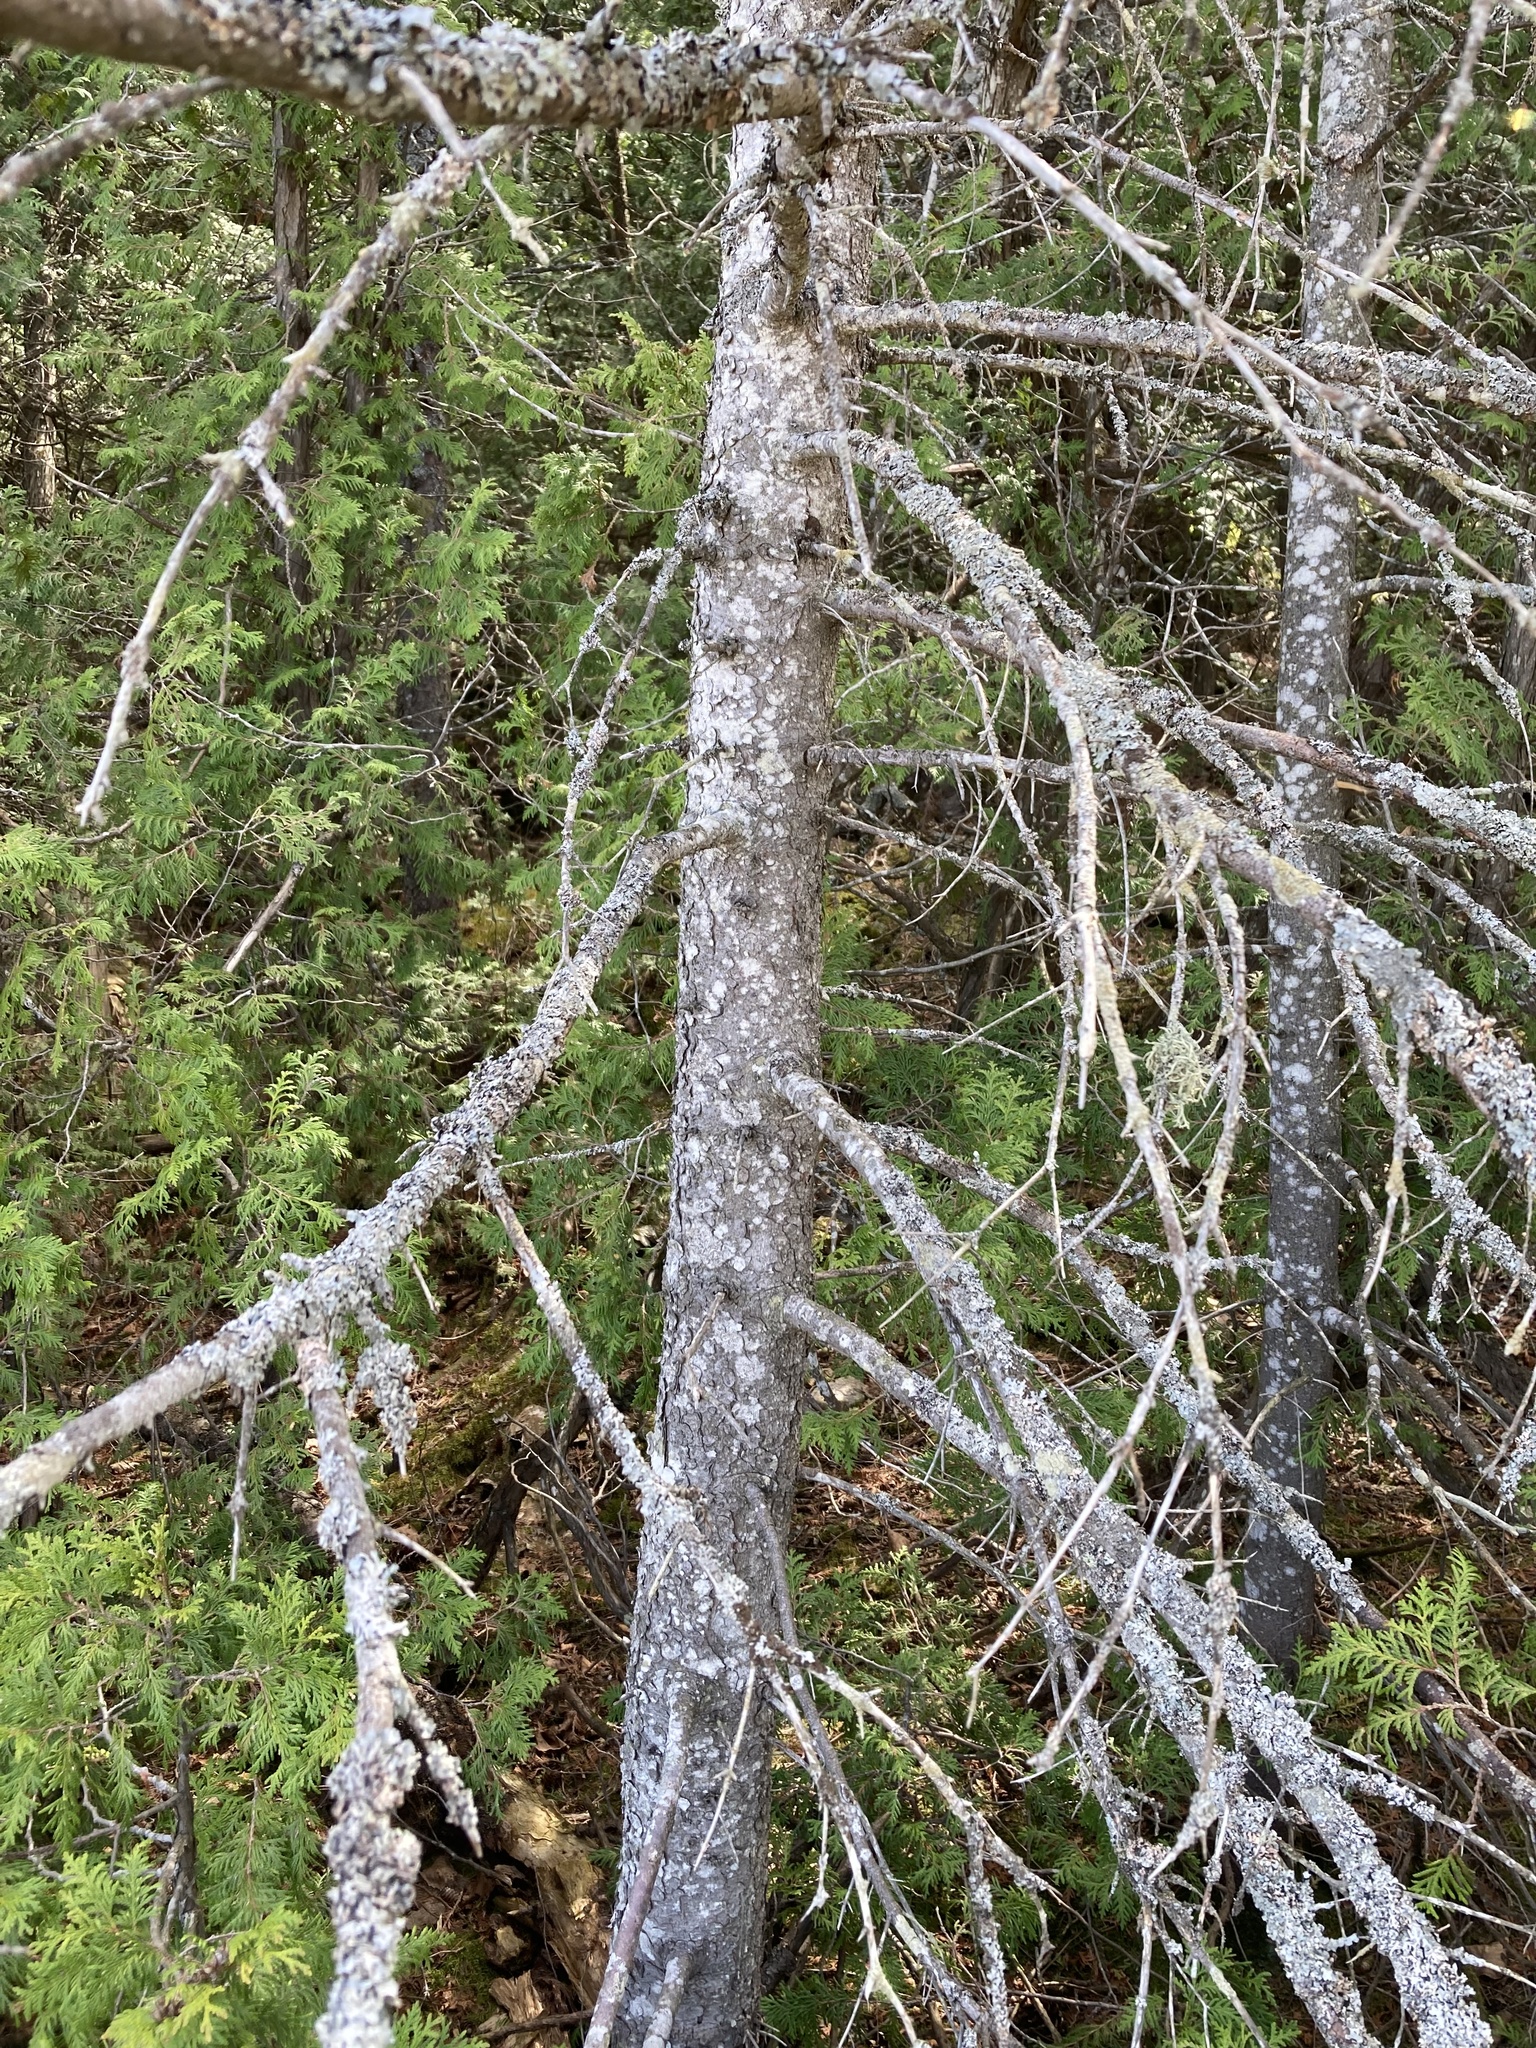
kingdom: Plantae
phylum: Tracheophyta
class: Pinopsida
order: Pinales
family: Pinaceae
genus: Picea
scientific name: Picea glauca
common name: White spruce
